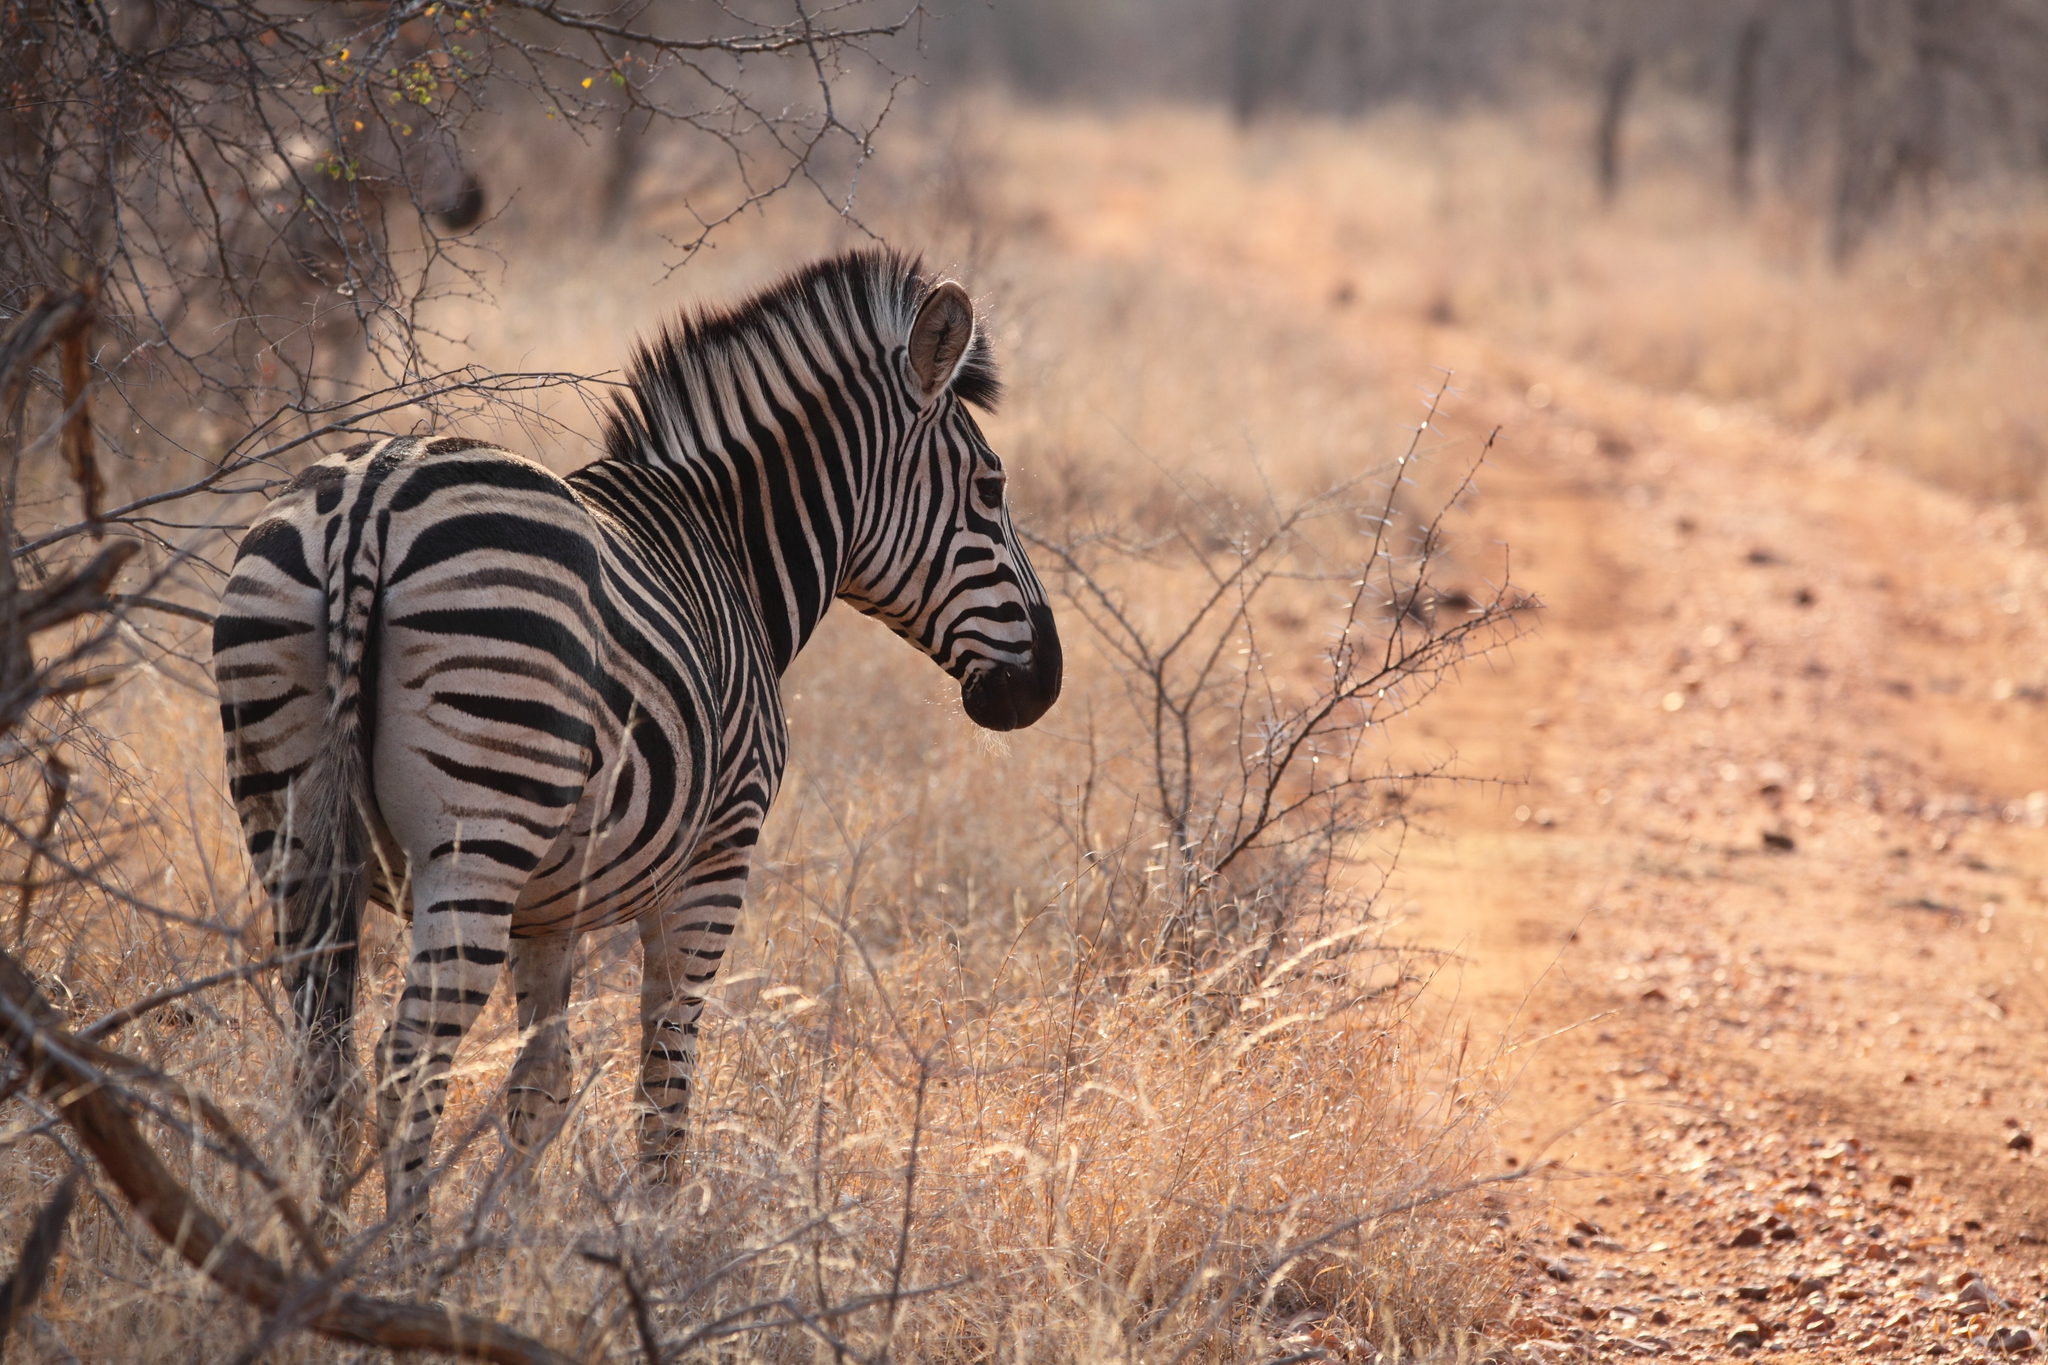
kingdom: Animalia
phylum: Chordata
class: Mammalia
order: Perissodactyla
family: Equidae
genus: Equus
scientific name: Equus quagga
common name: Plains zebra
